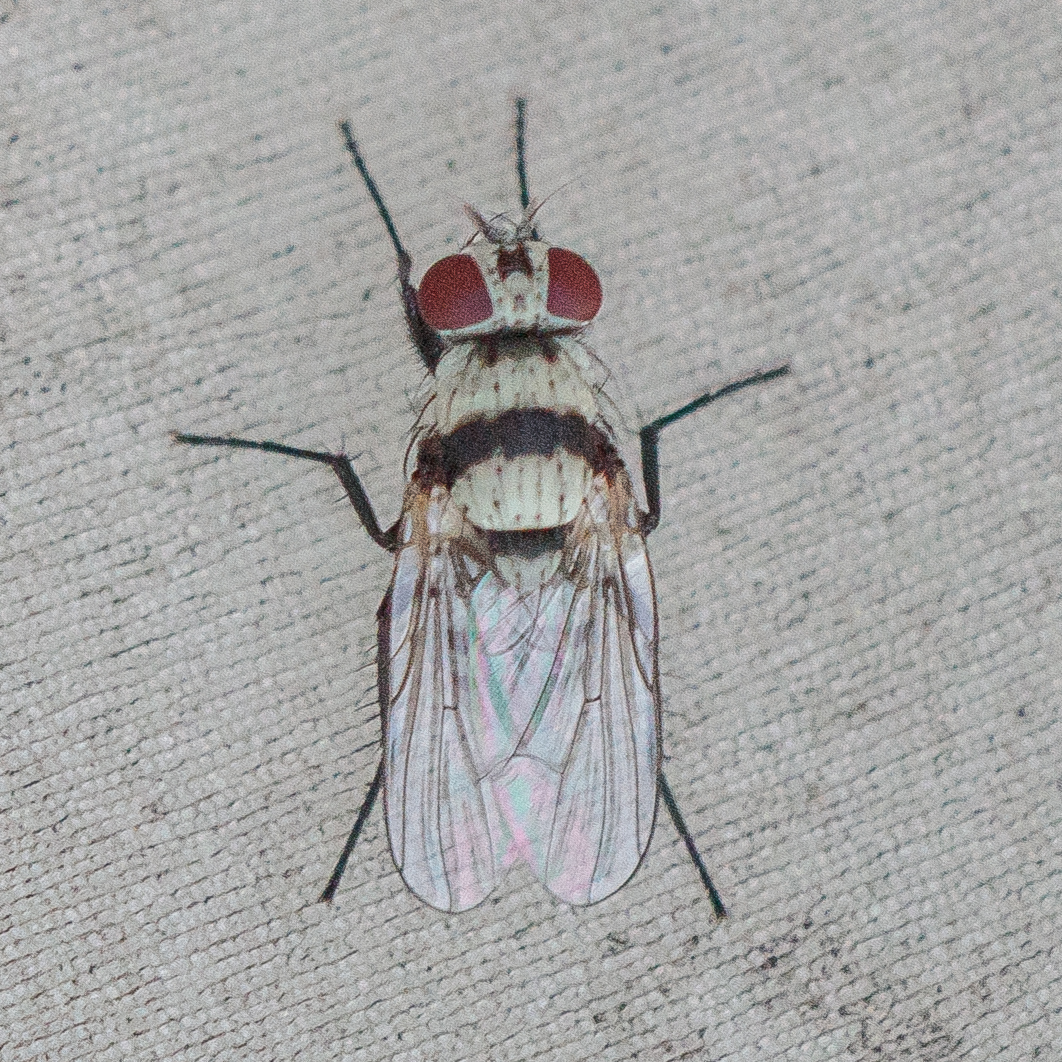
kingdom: Animalia
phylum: Arthropoda
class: Insecta
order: Diptera
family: Anthomyiidae
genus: Anthomyia
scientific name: Anthomyia illocata
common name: Fly
